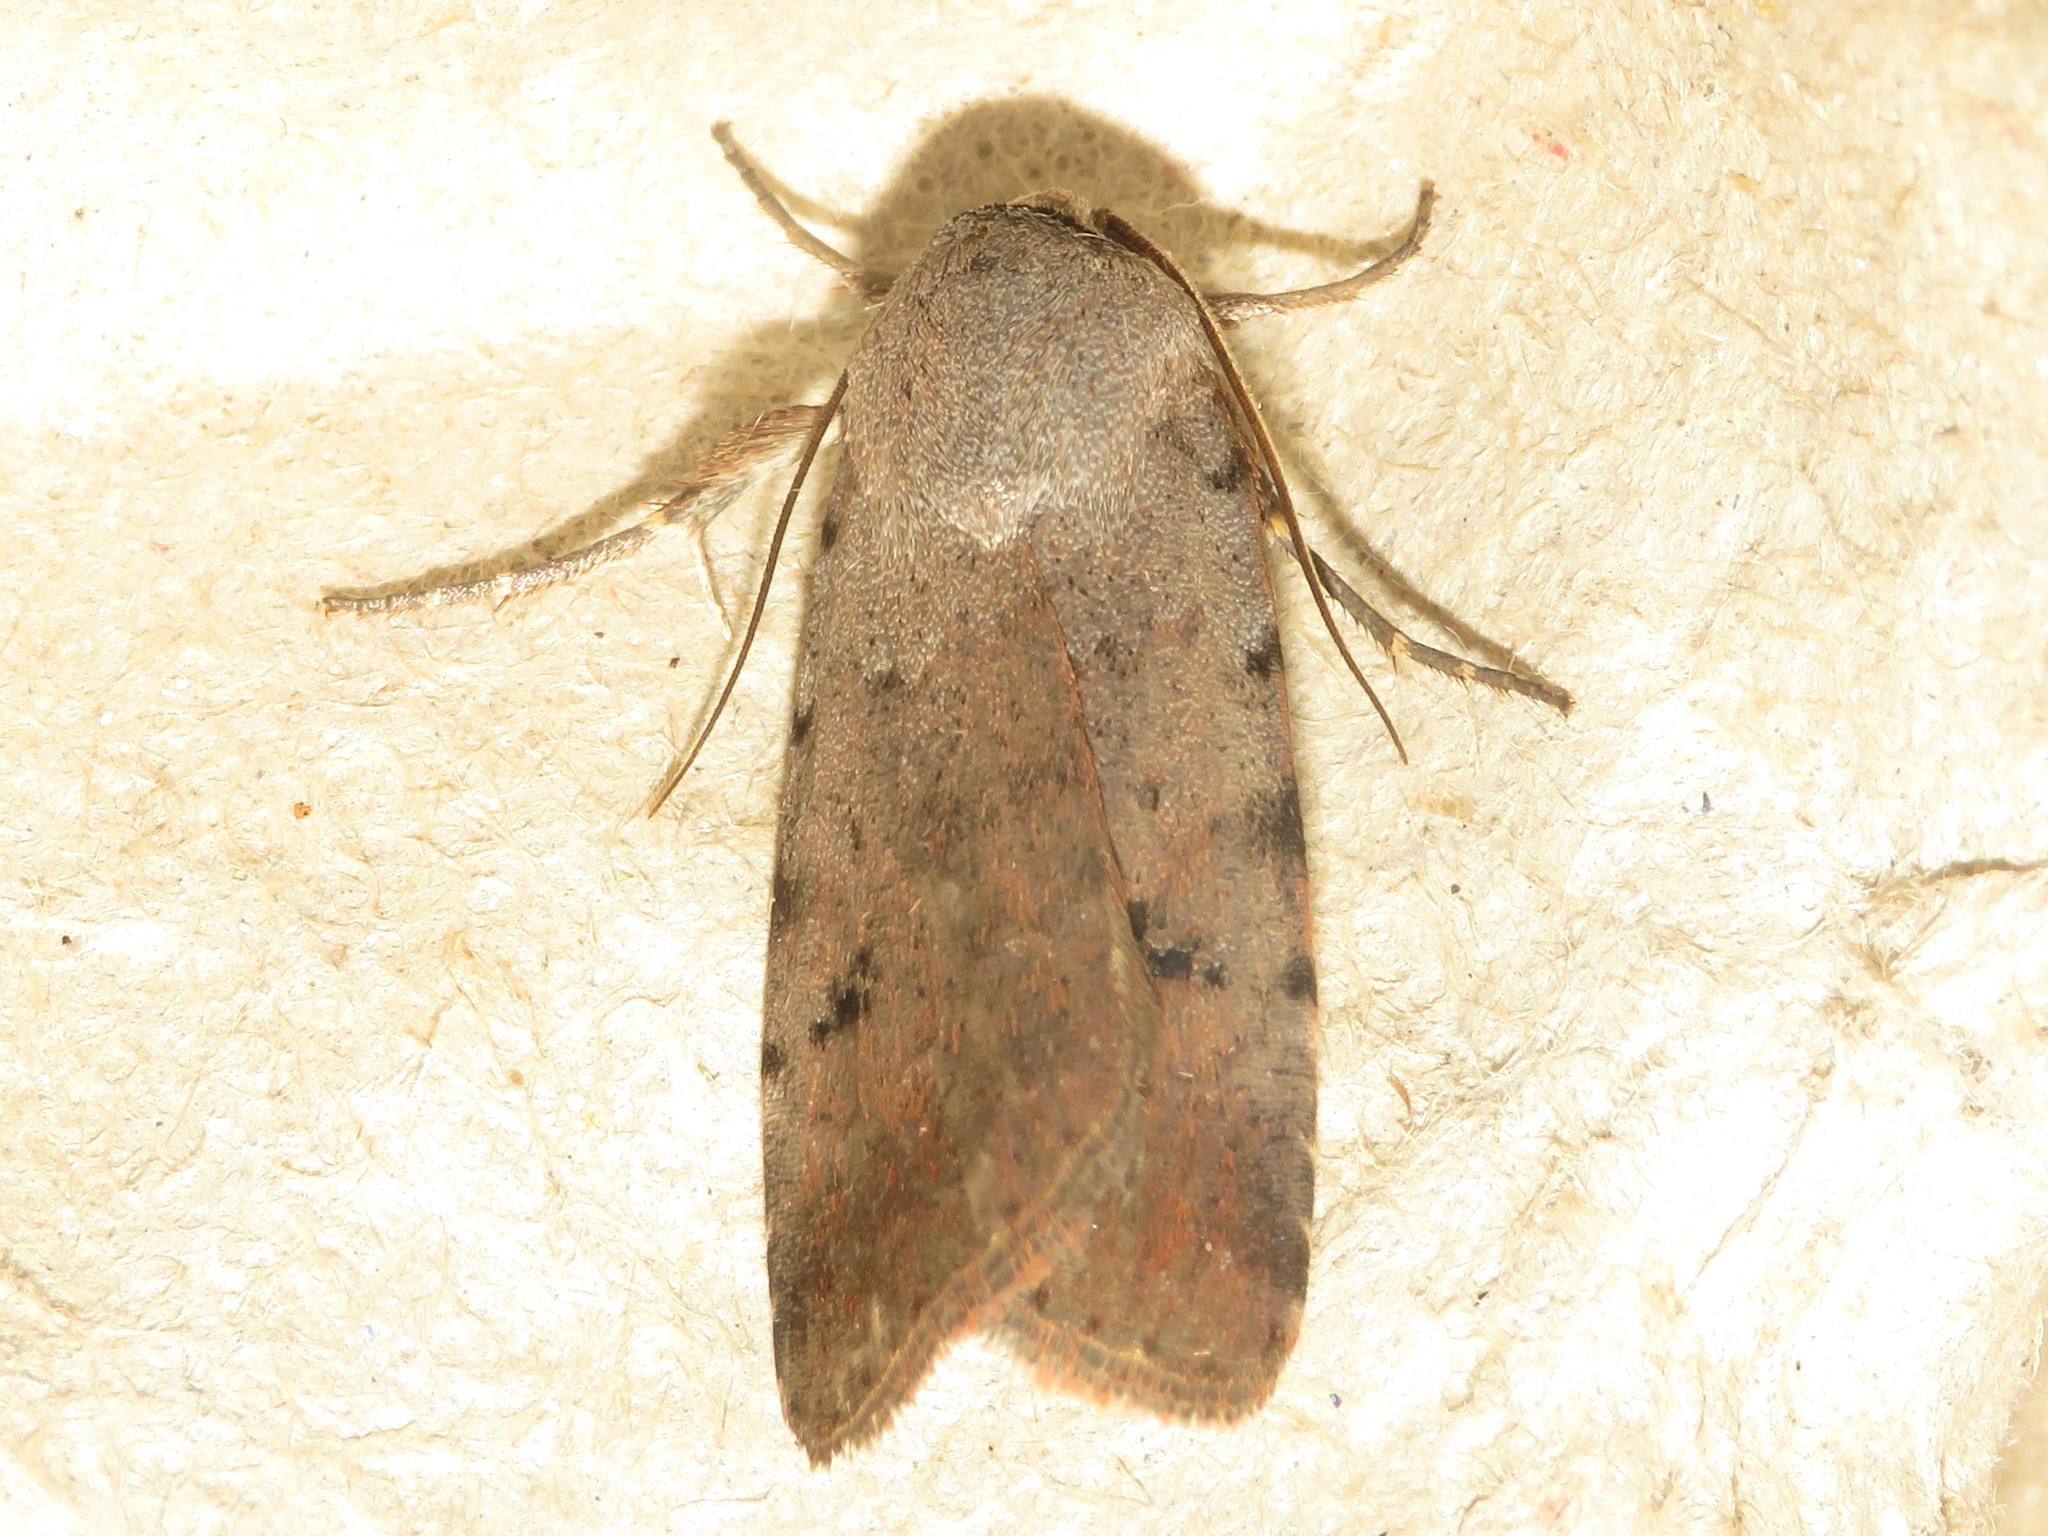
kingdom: Animalia
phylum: Arthropoda
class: Insecta
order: Lepidoptera
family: Noctuidae
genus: Anicla
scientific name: Anicla illapsa
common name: Snowy dart
